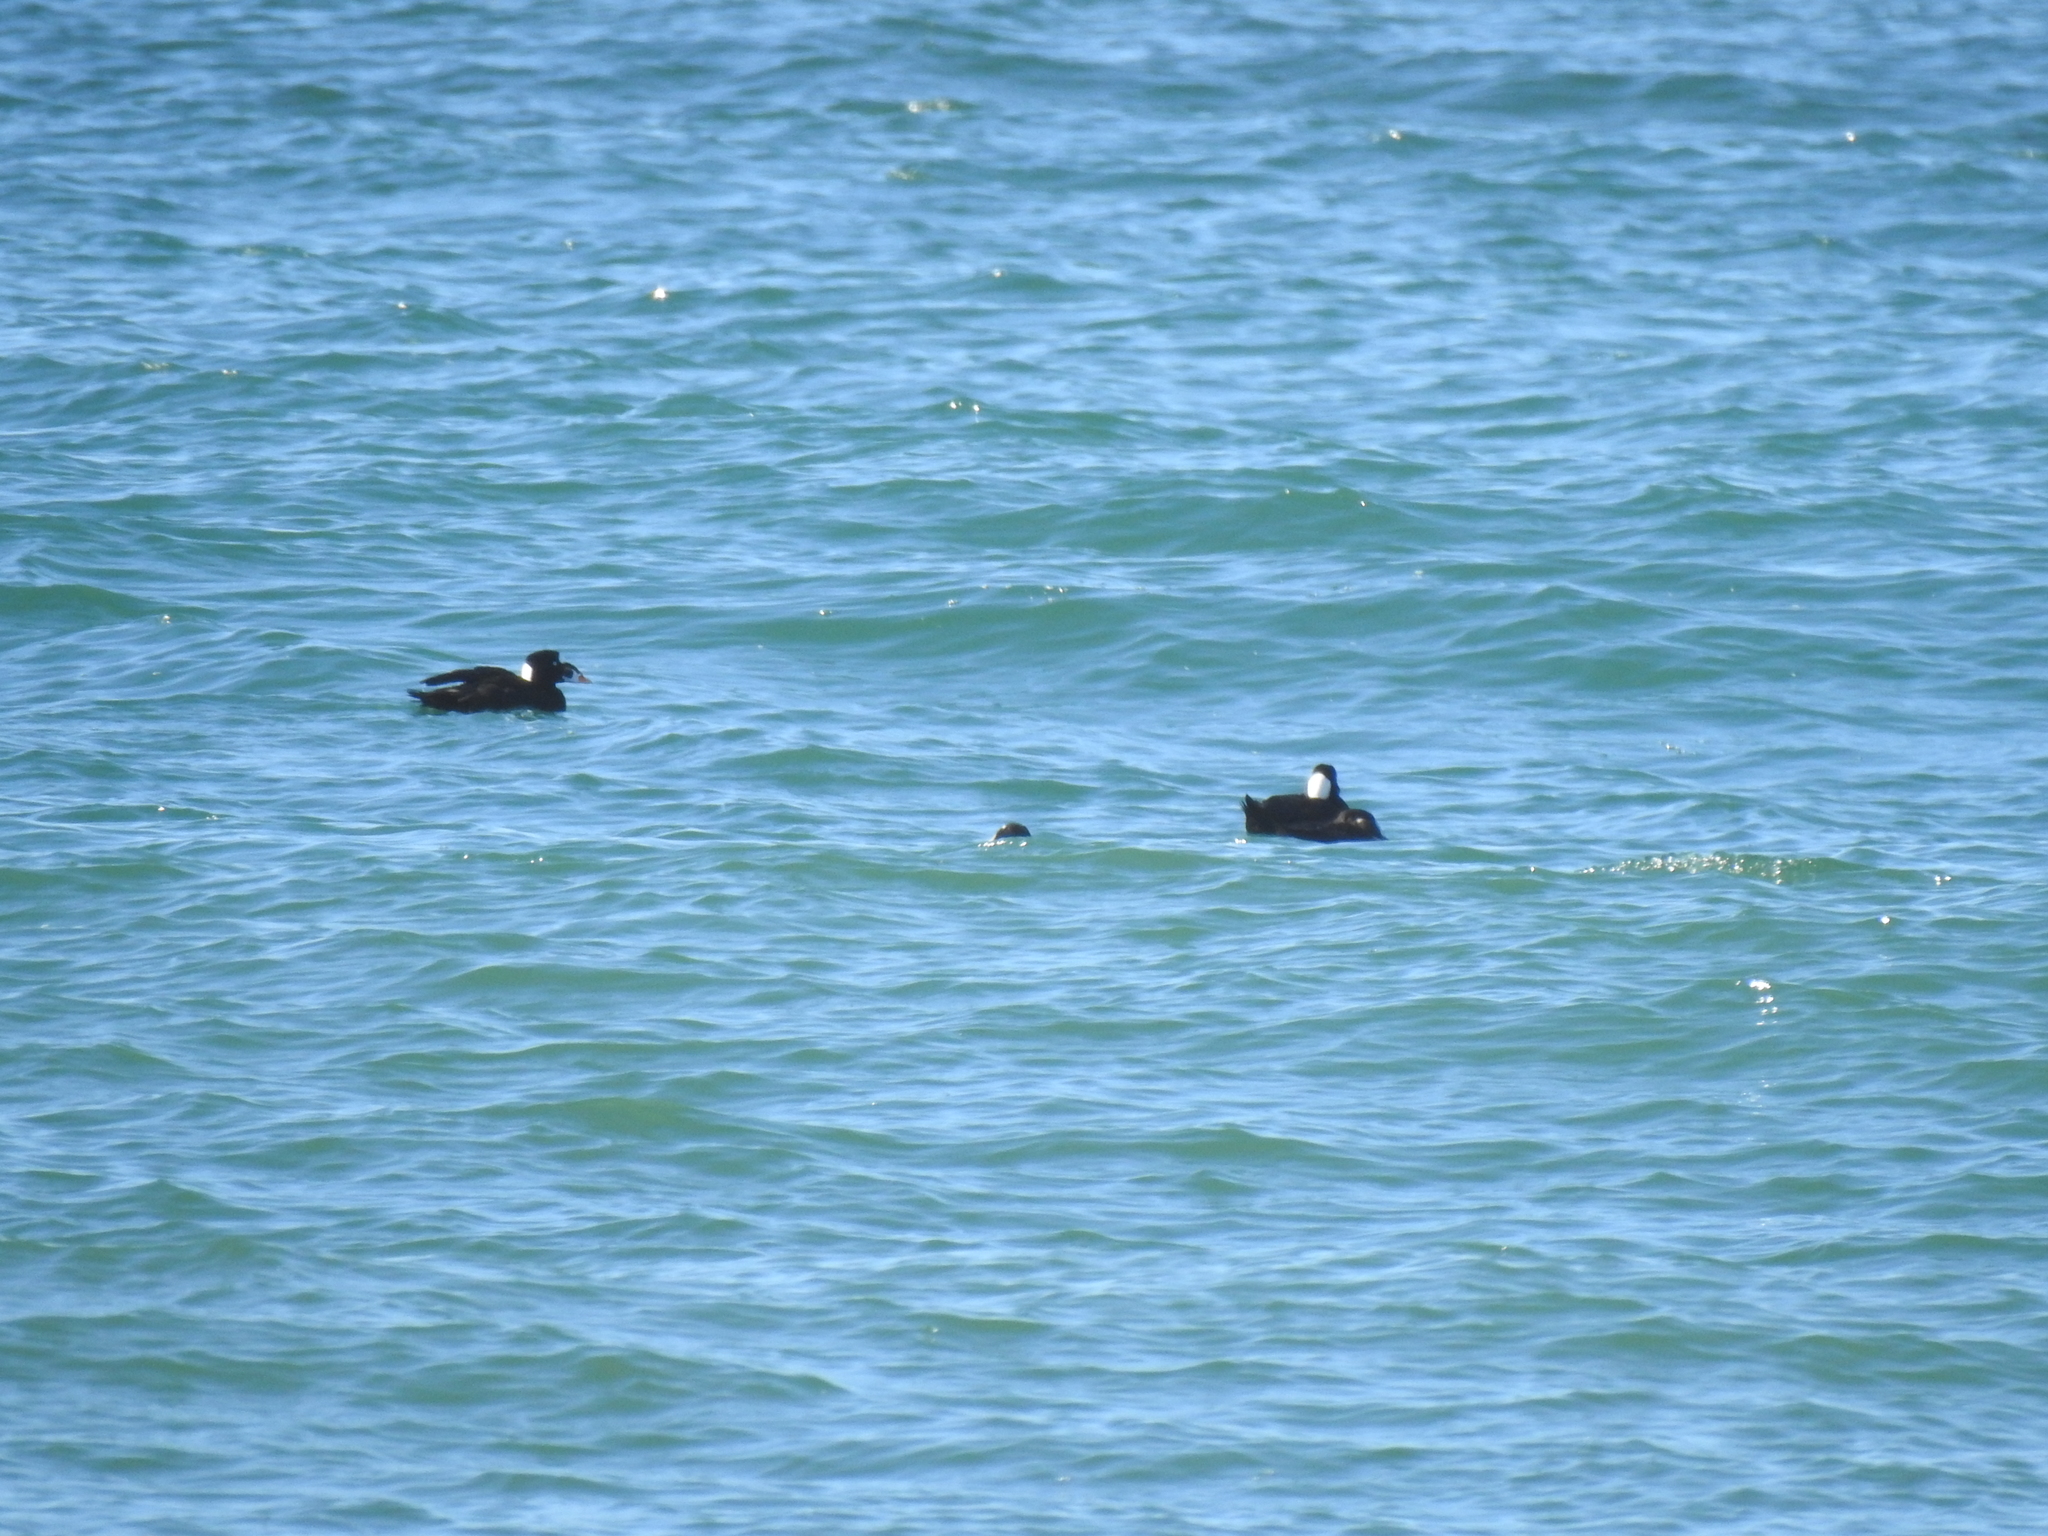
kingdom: Animalia
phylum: Chordata
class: Aves
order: Anseriformes
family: Anatidae
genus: Melanitta
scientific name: Melanitta perspicillata
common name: Surf scoter
